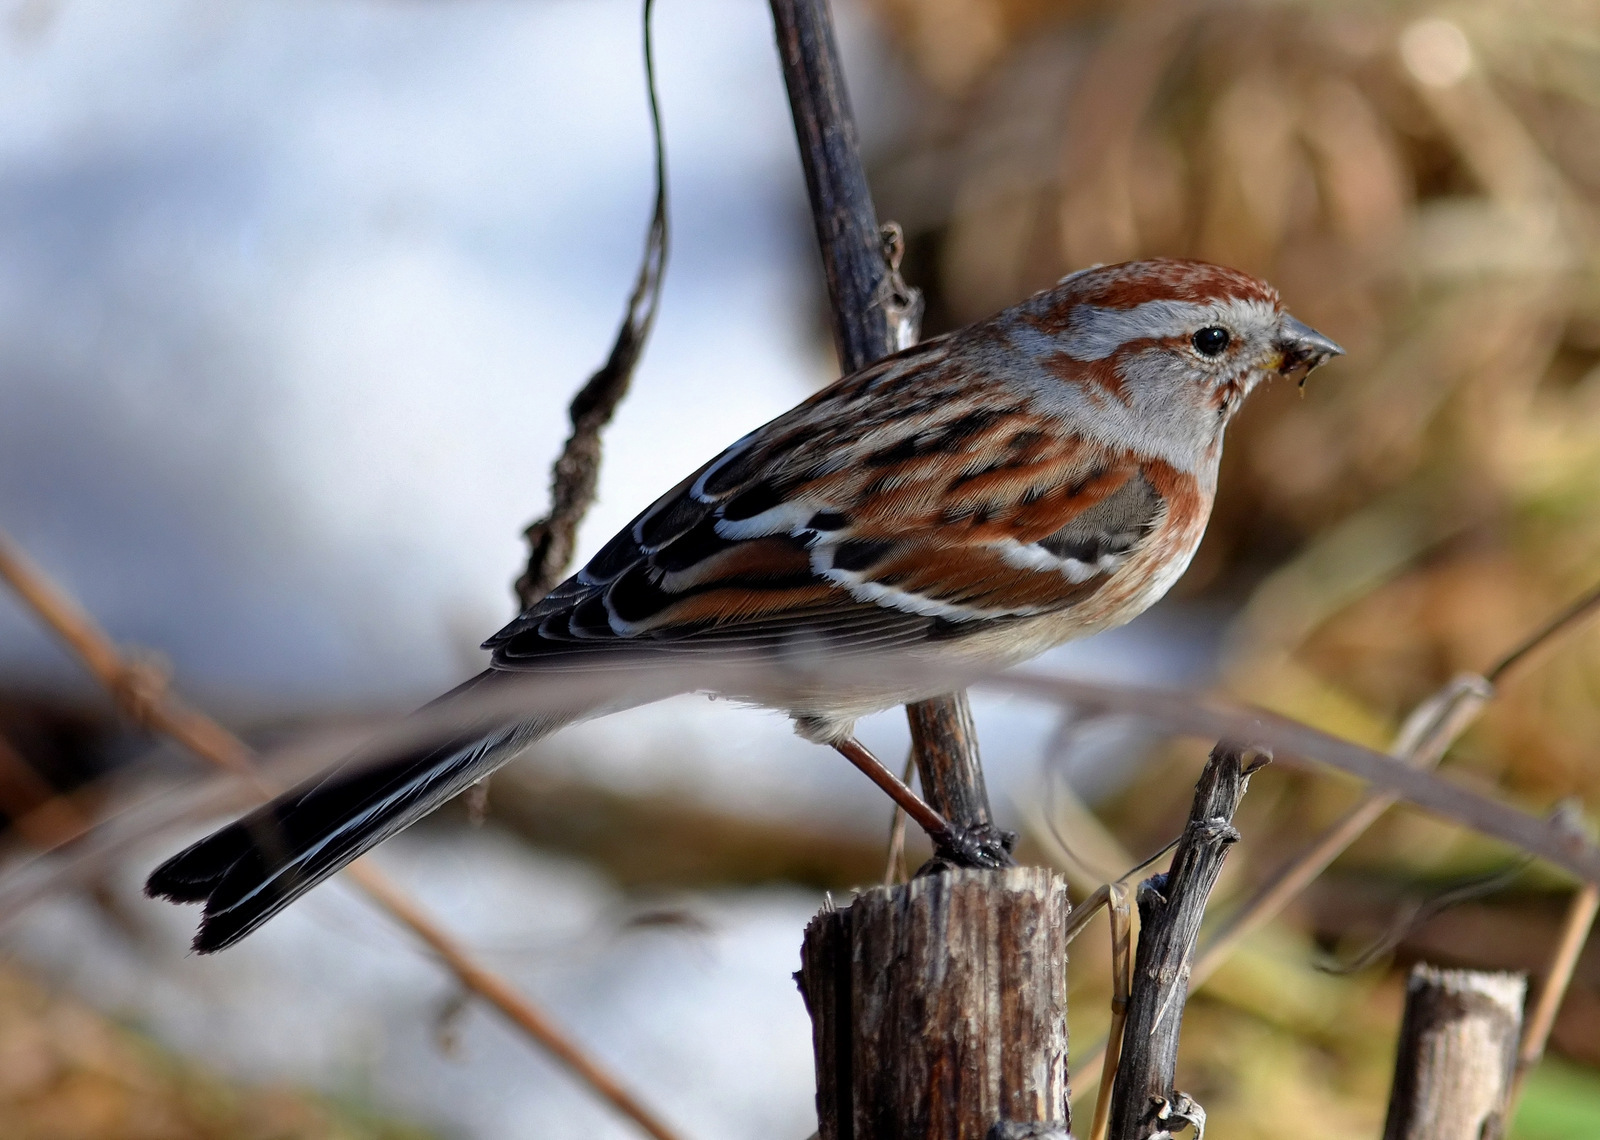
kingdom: Animalia
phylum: Chordata
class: Aves
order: Passeriformes
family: Passerellidae
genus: Spizelloides
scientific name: Spizelloides arborea
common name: American tree sparrow
